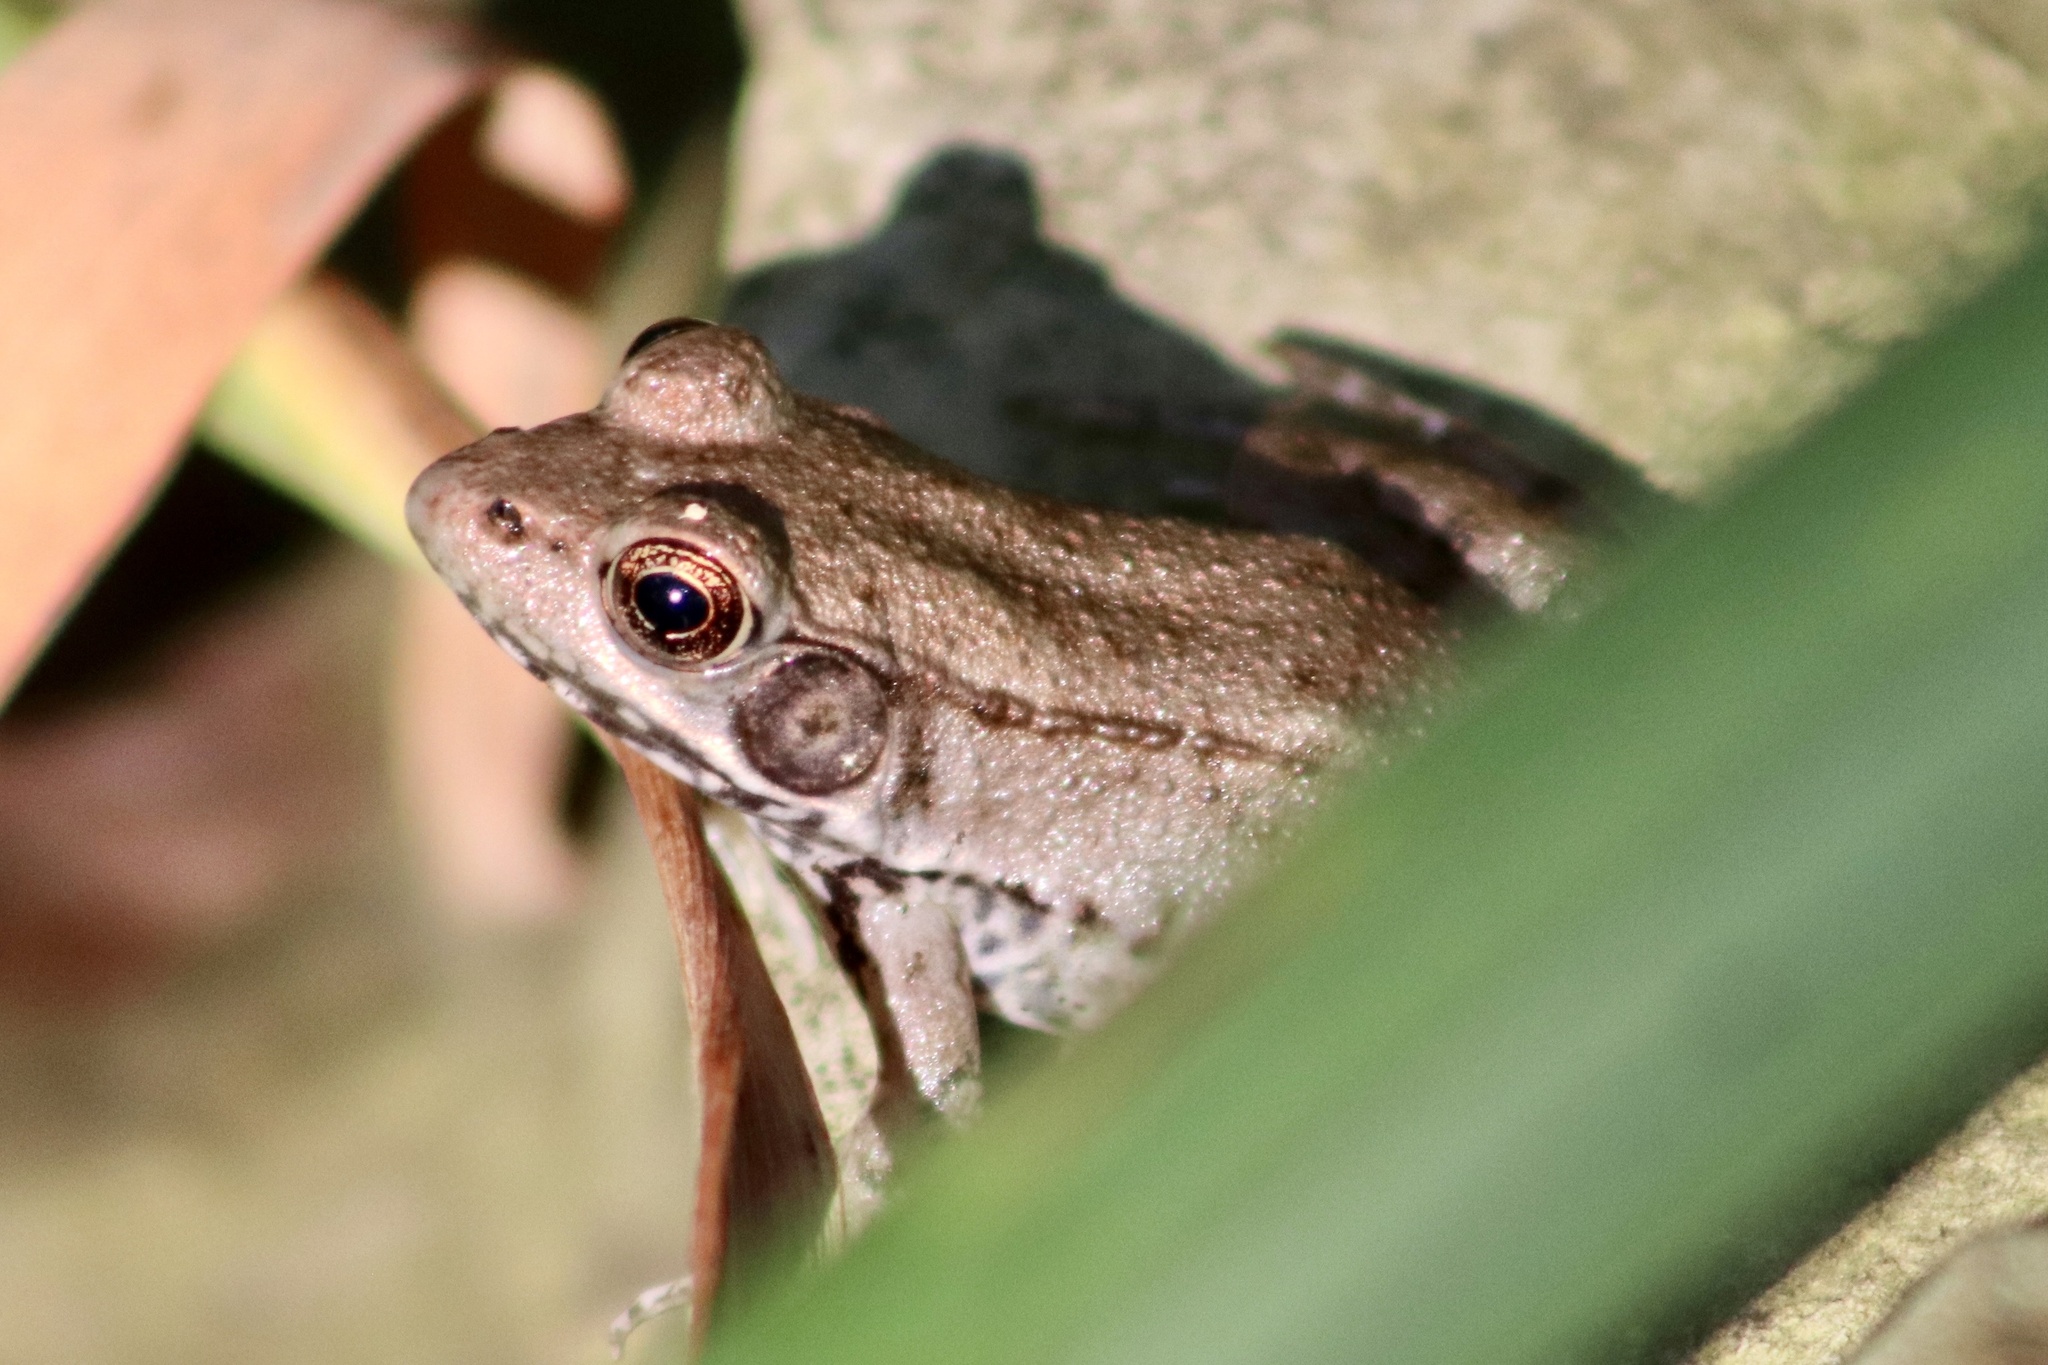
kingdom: Animalia
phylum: Chordata
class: Amphibia
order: Anura
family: Ranidae
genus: Lithobates
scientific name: Lithobates clamitans
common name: Green frog
